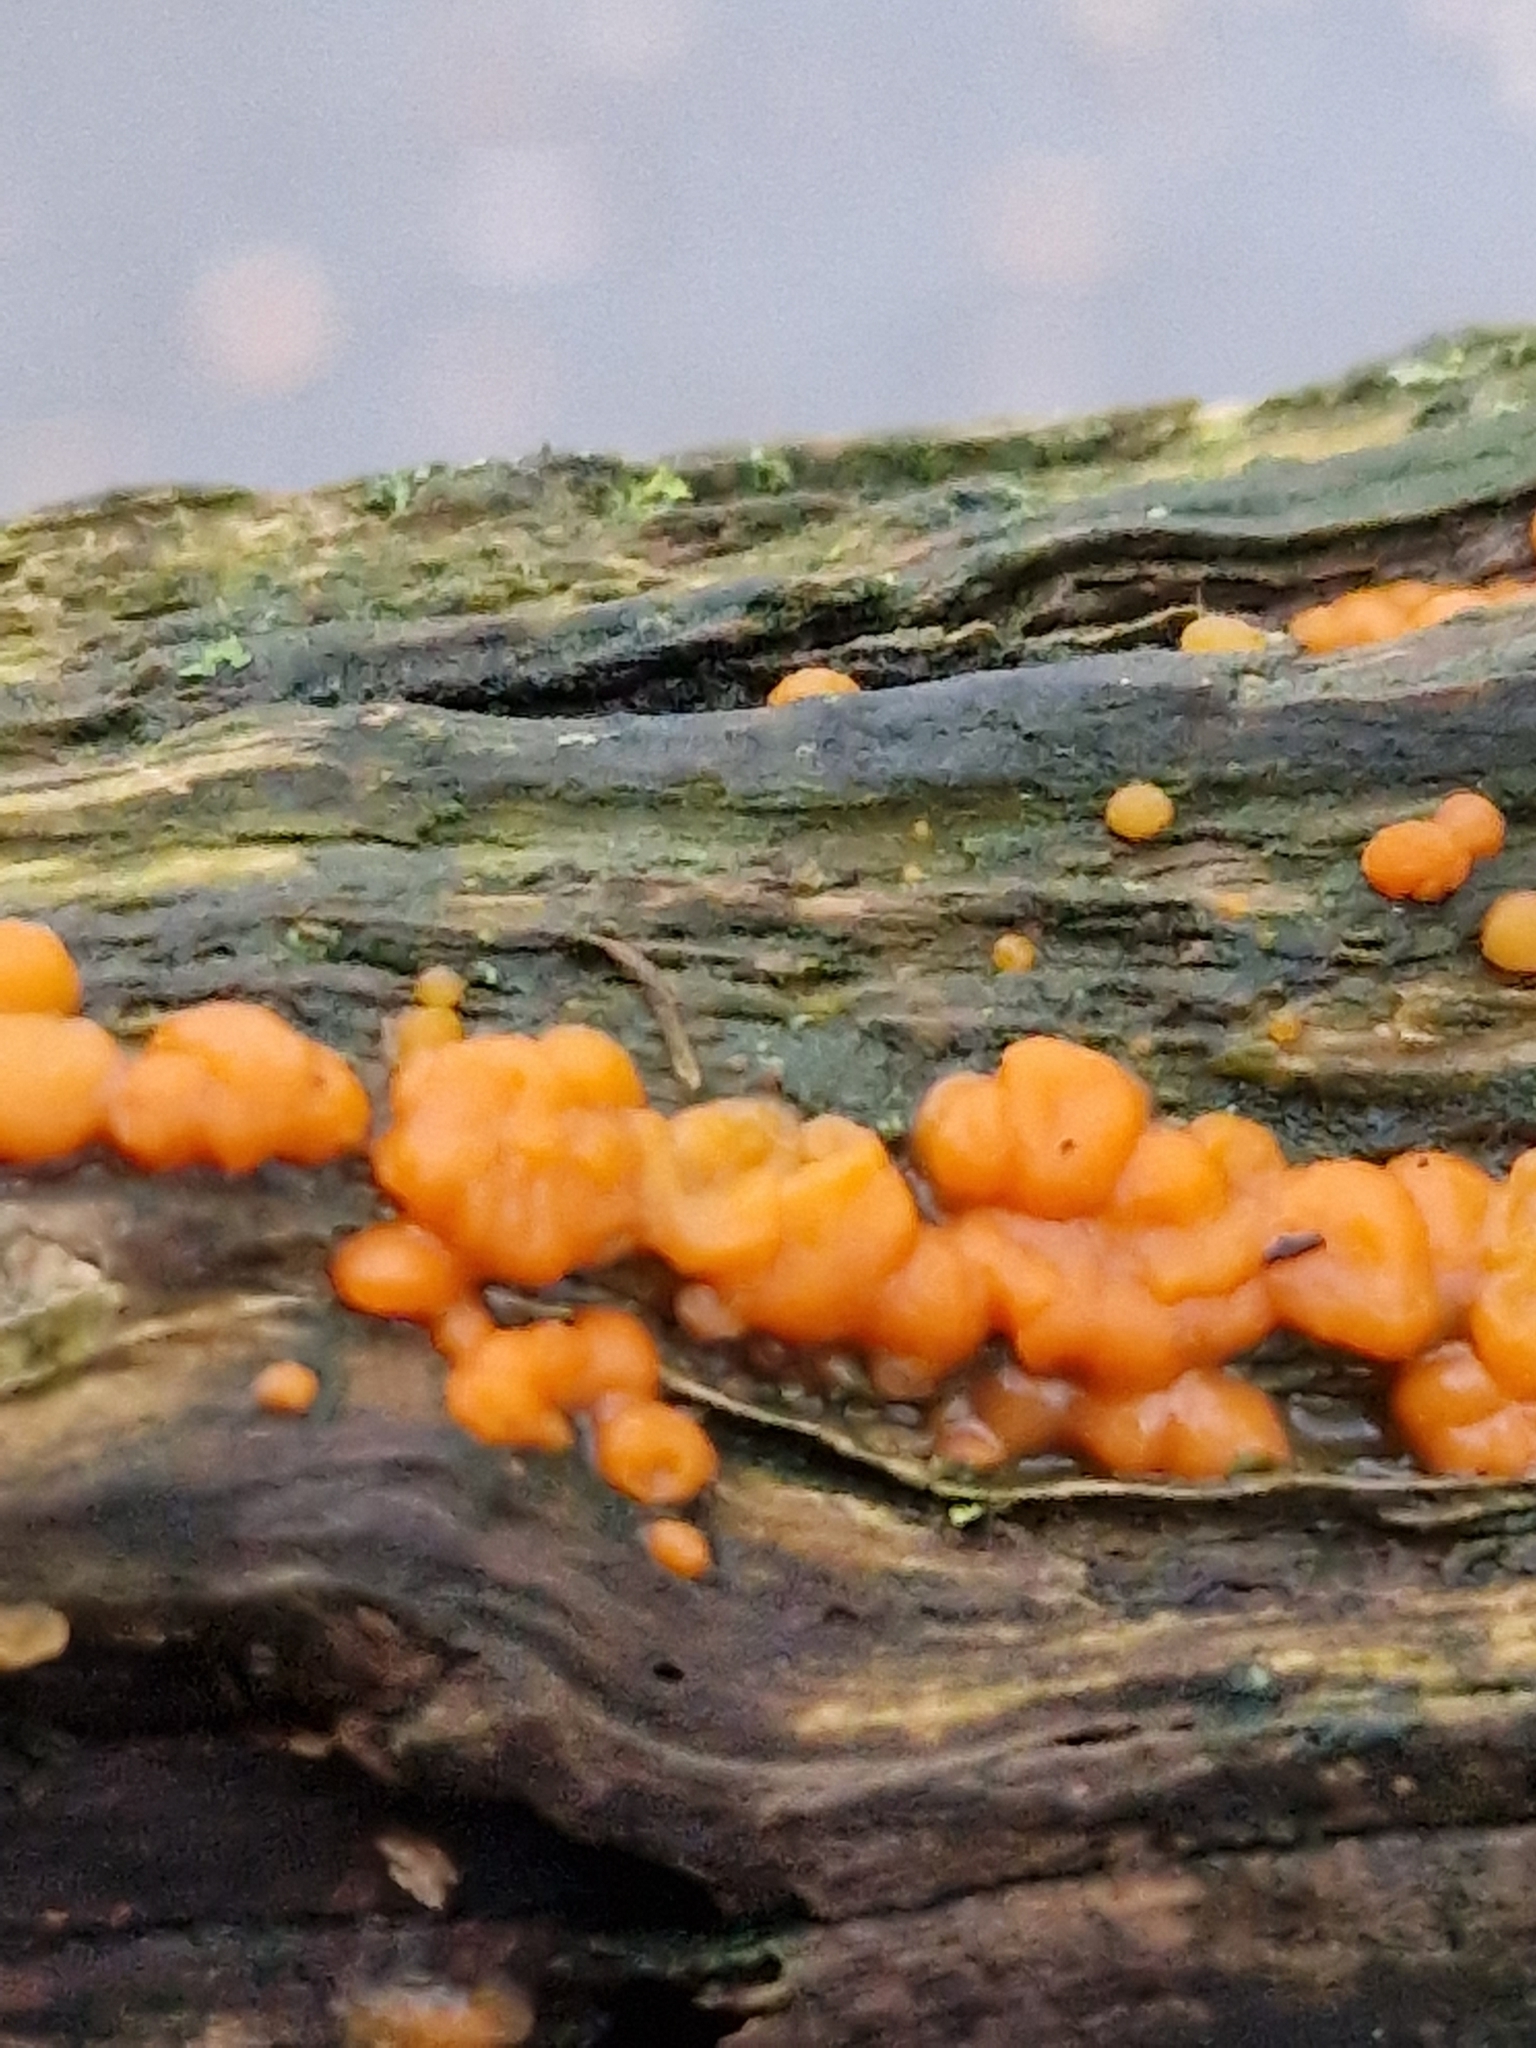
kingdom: Fungi
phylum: Basidiomycota
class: Dacrymycetes
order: Dacrymycetales
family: Dacrymycetaceae
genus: Dacrymyces
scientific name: Dacrymyces stillatus
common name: Common jelly spot
